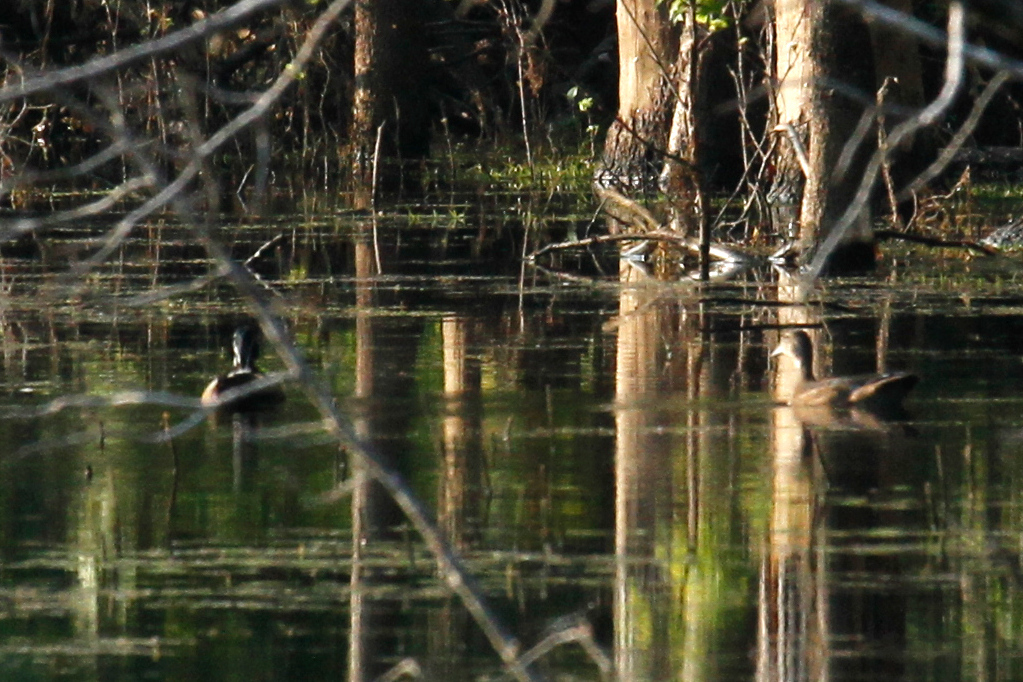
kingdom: Animalia
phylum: Chordata
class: Aves
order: Anseriformes
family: Anatidae
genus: Aix
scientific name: Aix sponsa
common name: Wood duck
